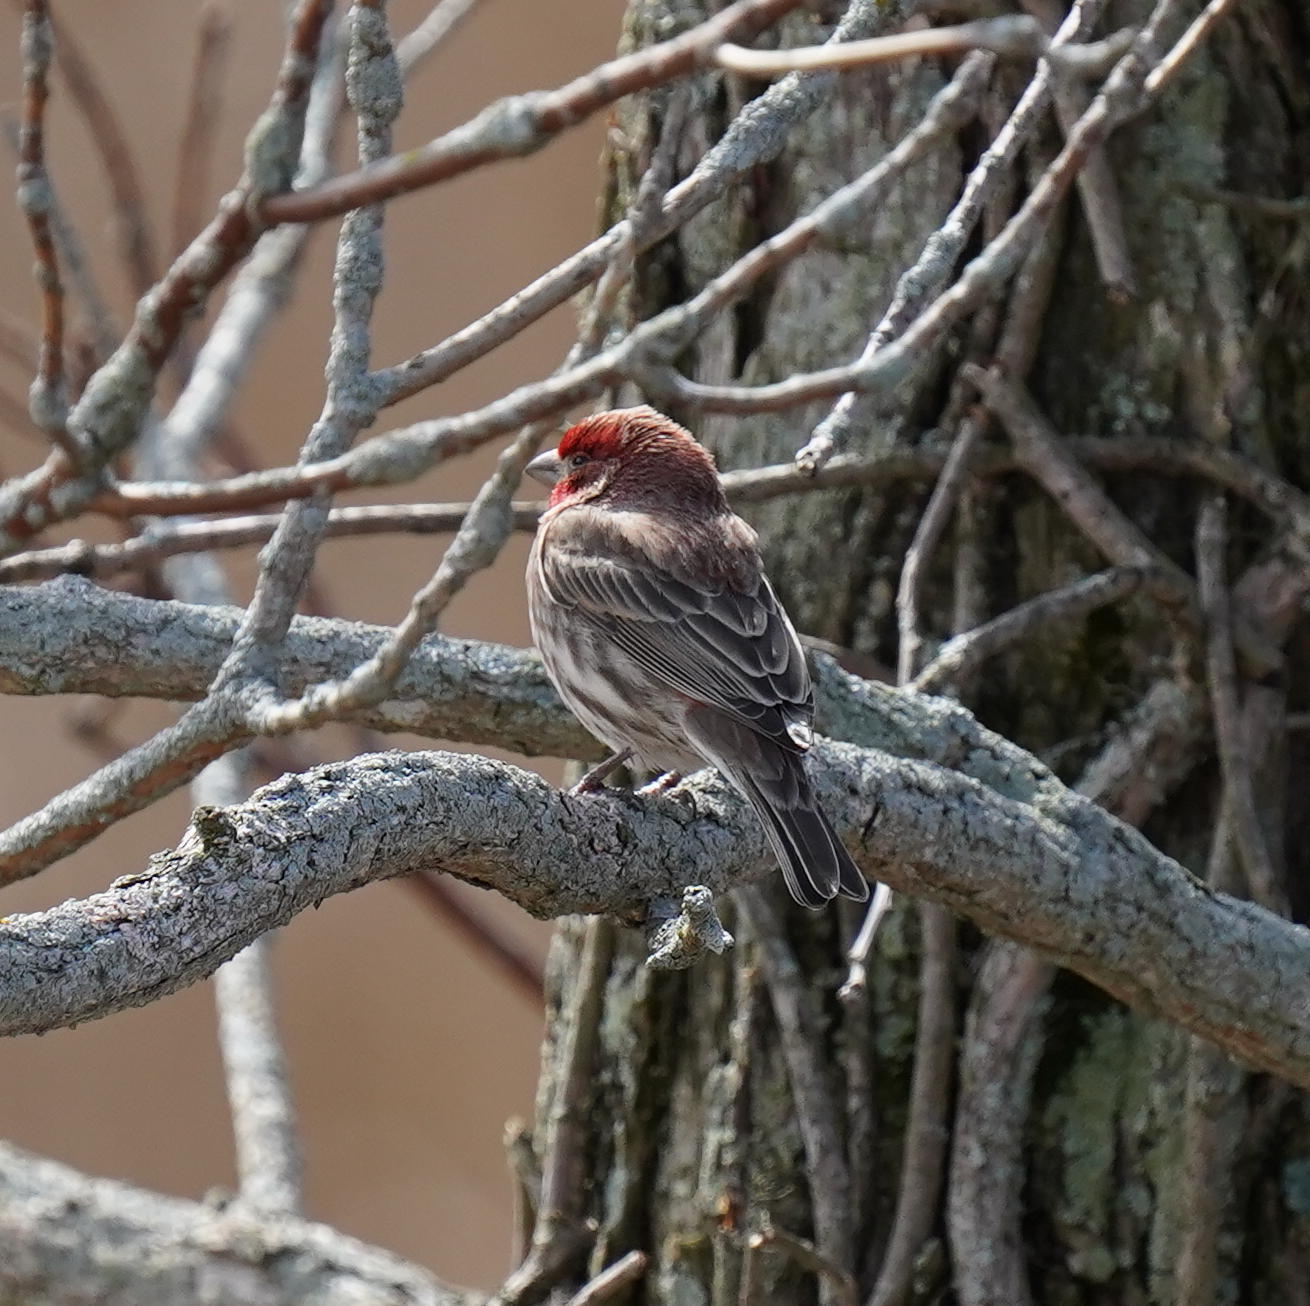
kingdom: Animalia
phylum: Chordata
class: Aves
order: Passeriformes
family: Fringillidae
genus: Haemorhous
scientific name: Haemorhous mexicanus
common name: House finch
